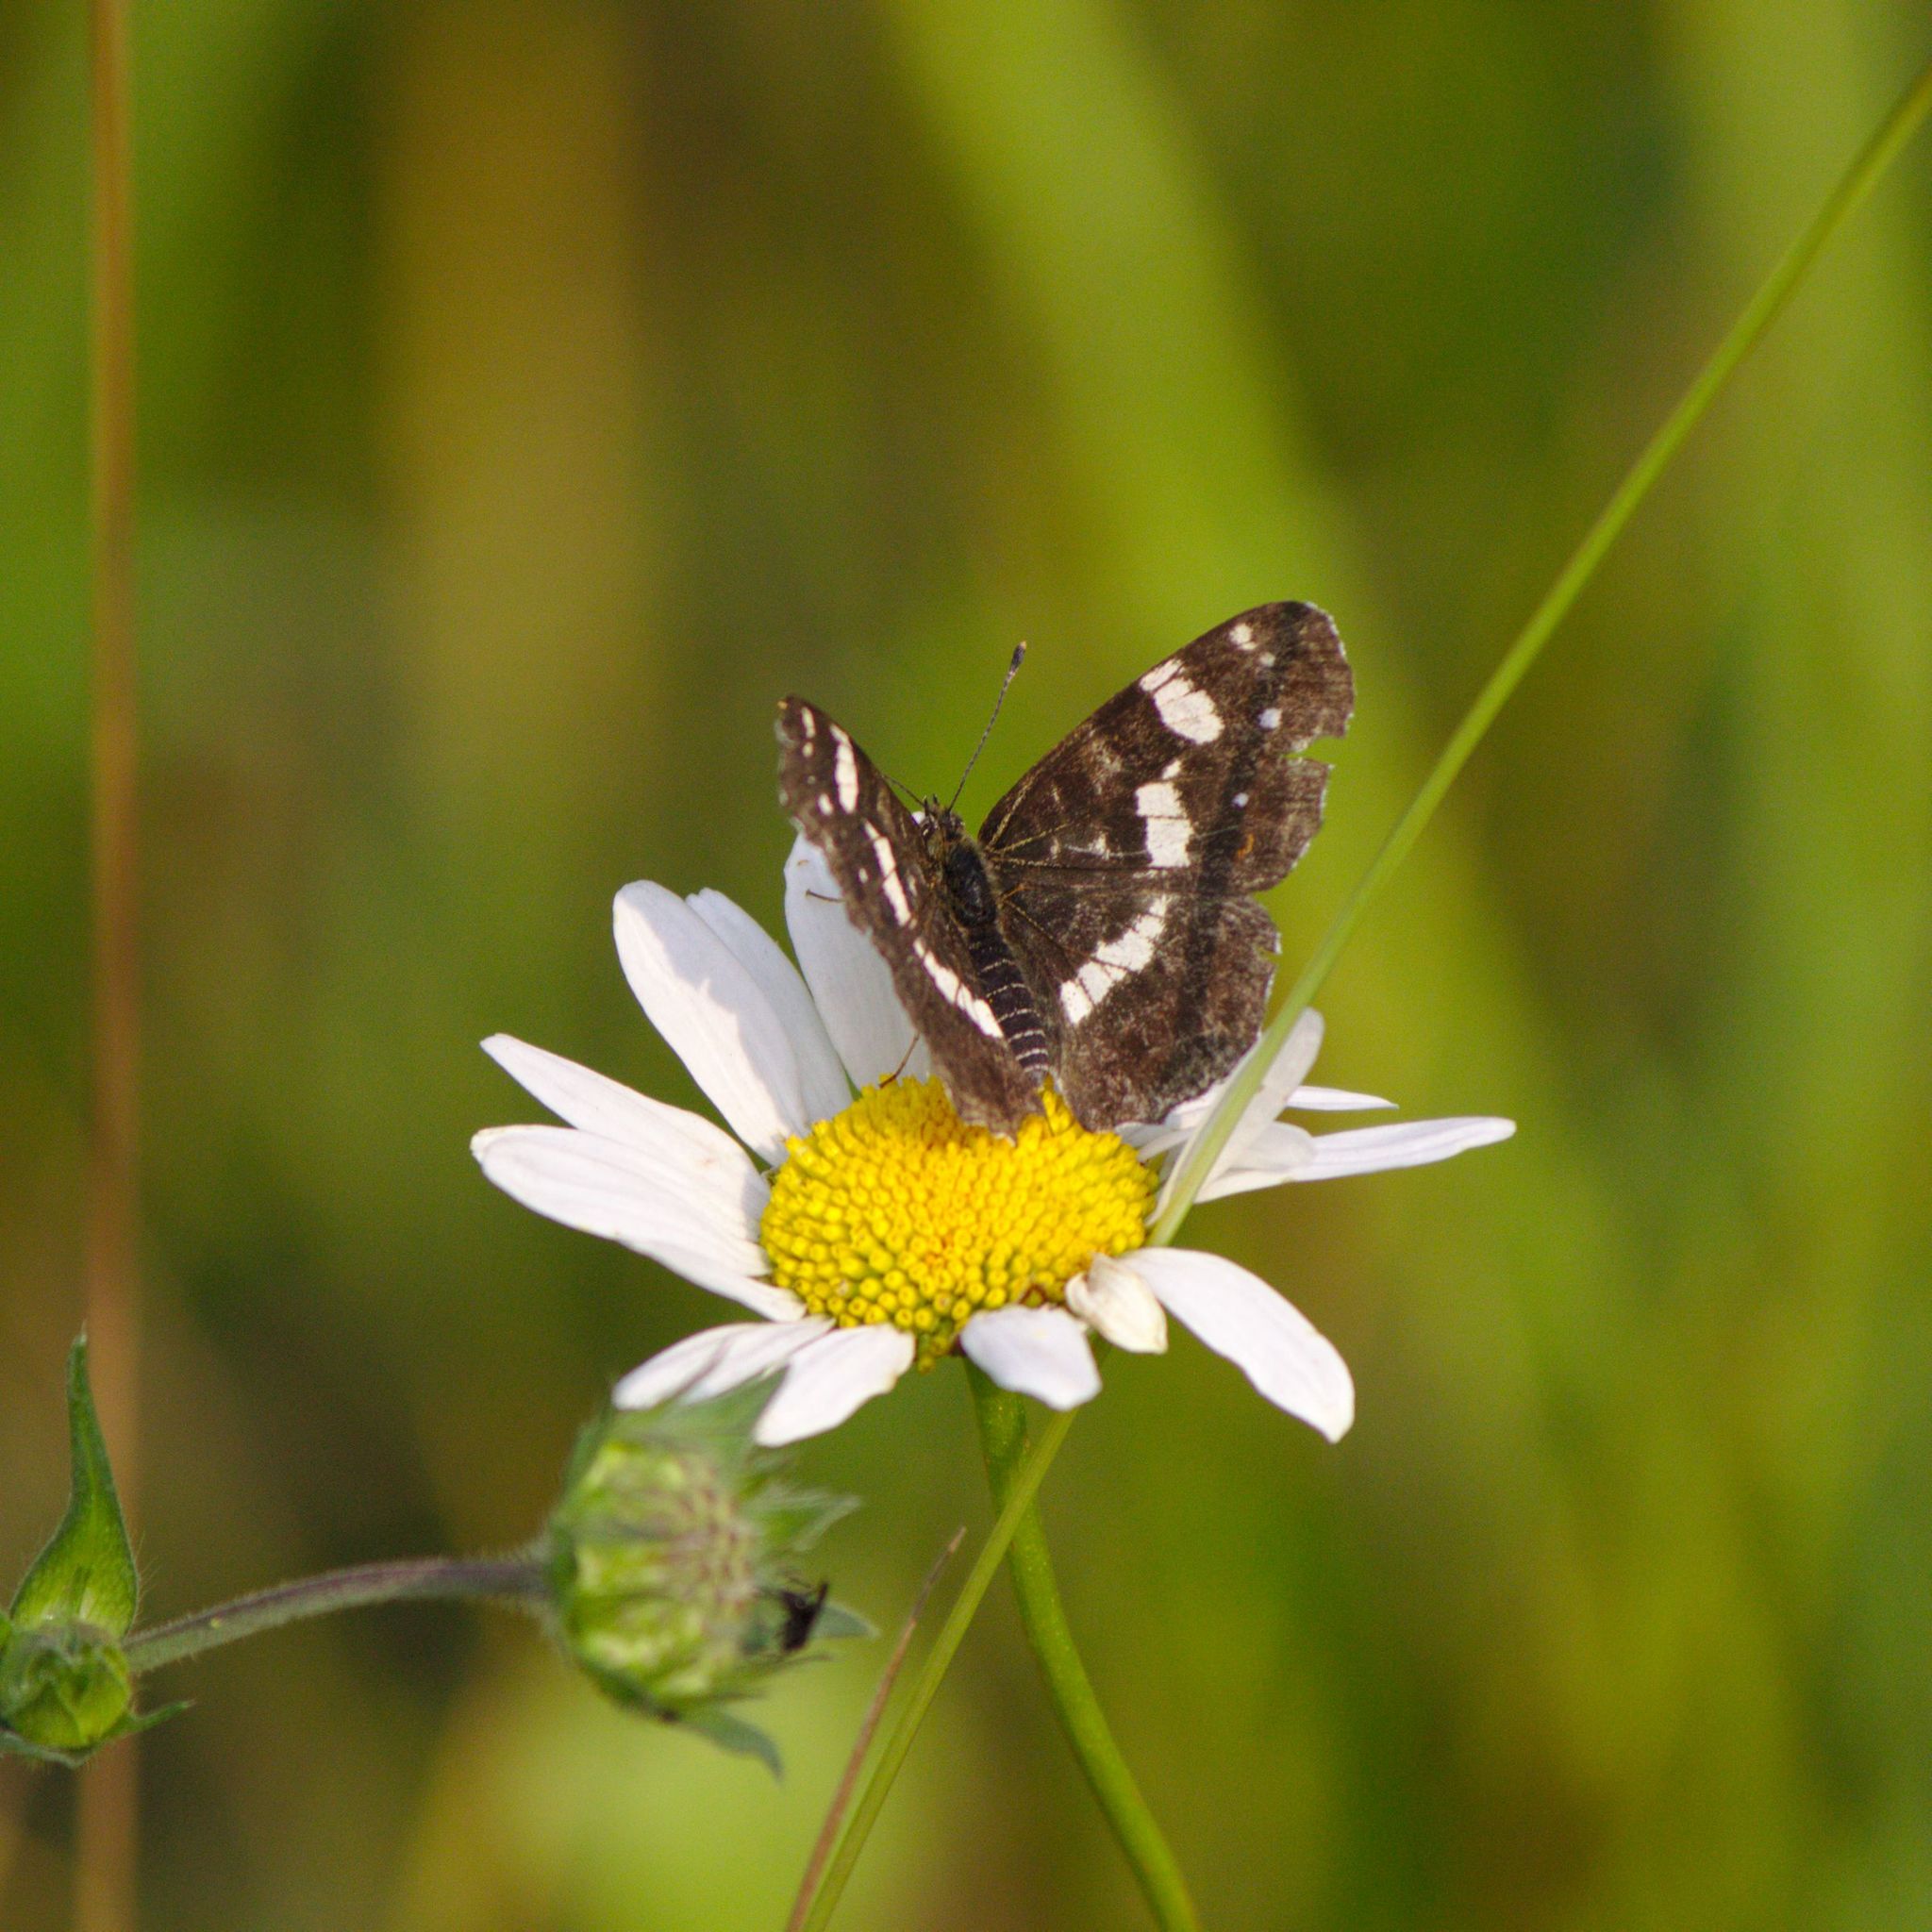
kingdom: Animalia
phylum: Arthropoda
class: Insecta
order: Lepidoptera
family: Nymphalidae
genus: Araschnia
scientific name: Araschnia levana
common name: Map butterfly
